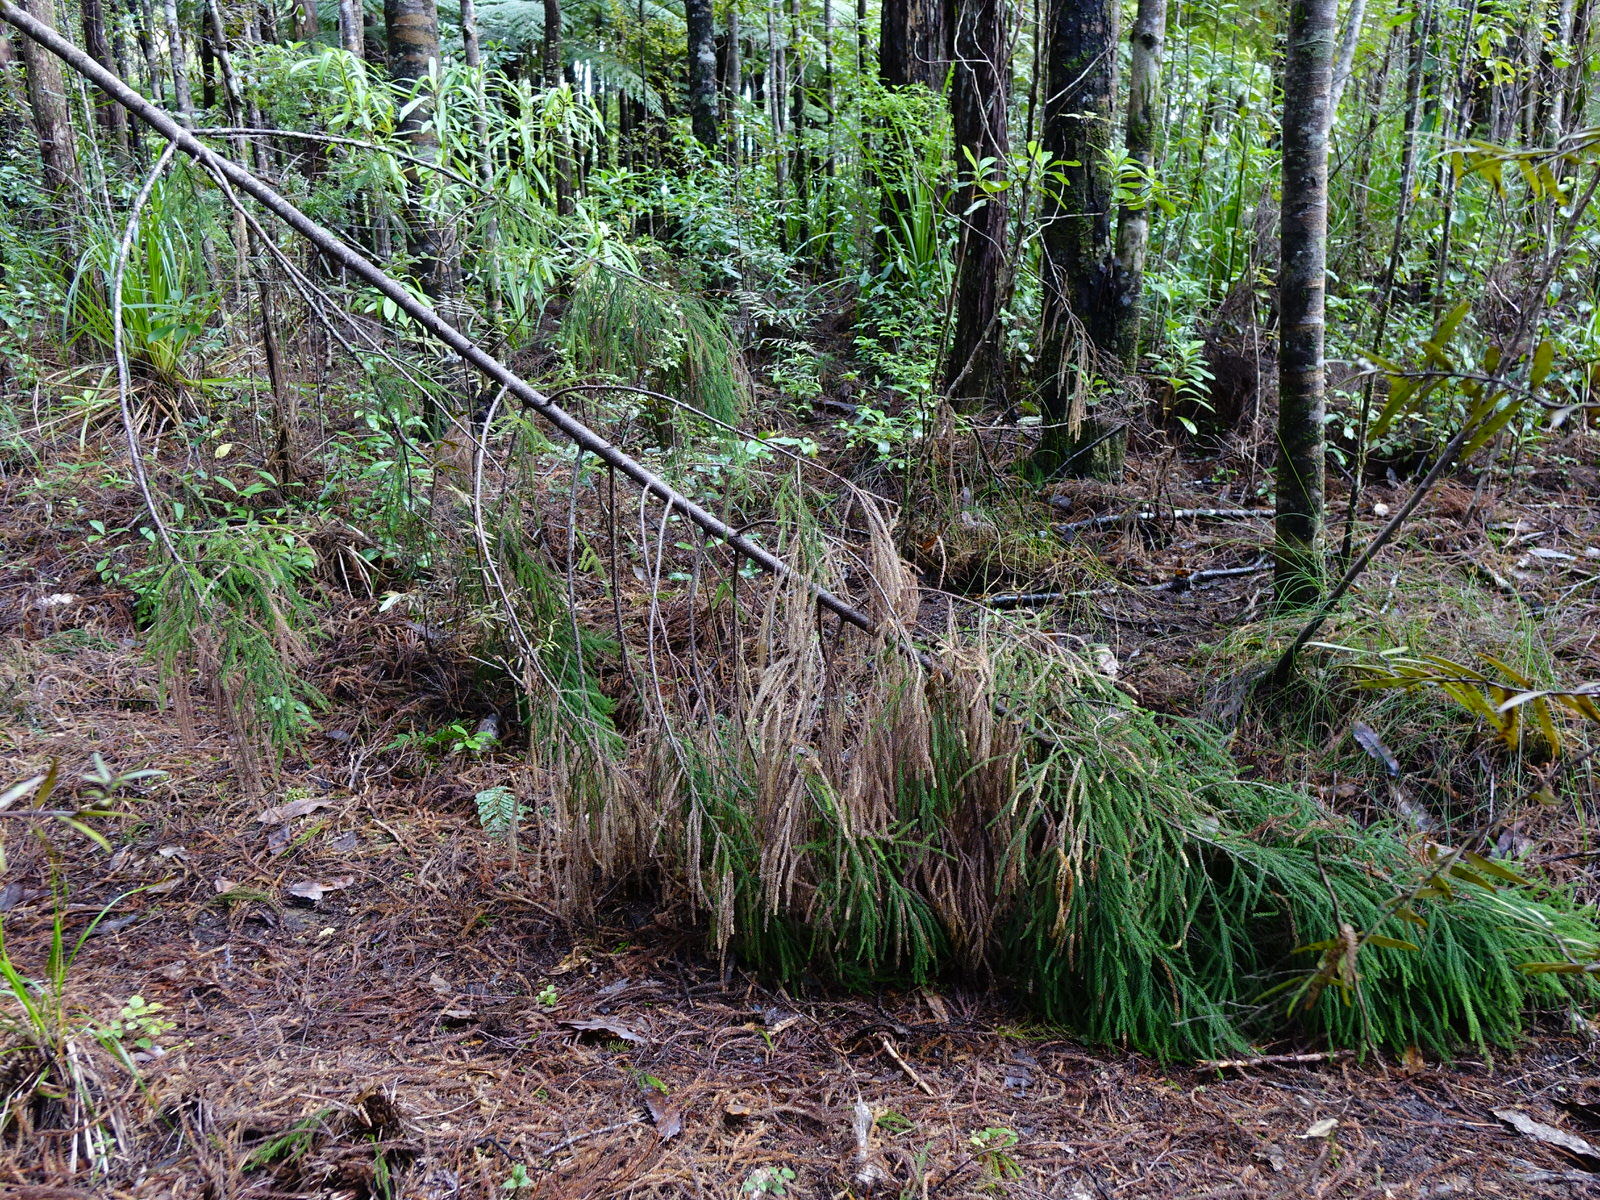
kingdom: Plantae
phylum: Tracheophyta
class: Pinopsida
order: Pinales
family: Podocarpaceae
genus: Dacrydium
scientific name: Dacrydium cupressinum
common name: Red pine
